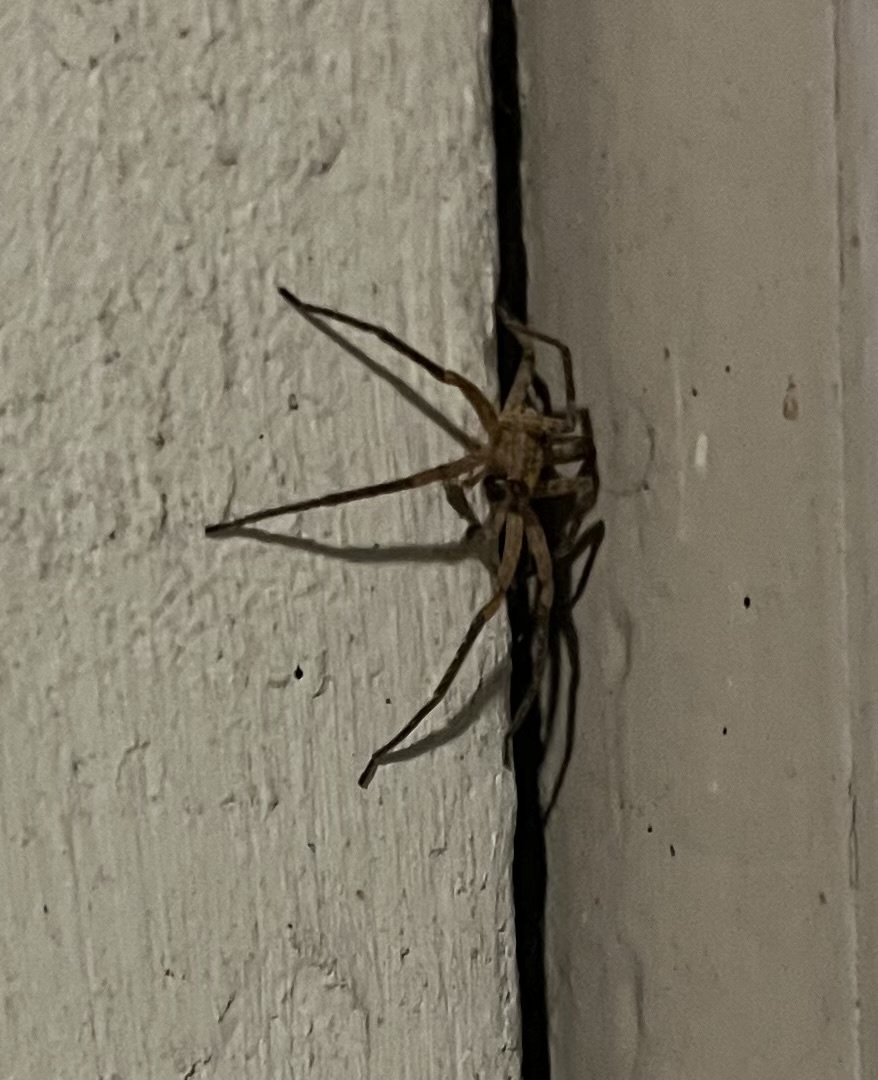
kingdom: Animalia
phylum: Arthropoda
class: Arachnida
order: Araneae
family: Zoropsidae
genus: Zoropsis
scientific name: Zoropsis spinimana
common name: Zoropsid spider
